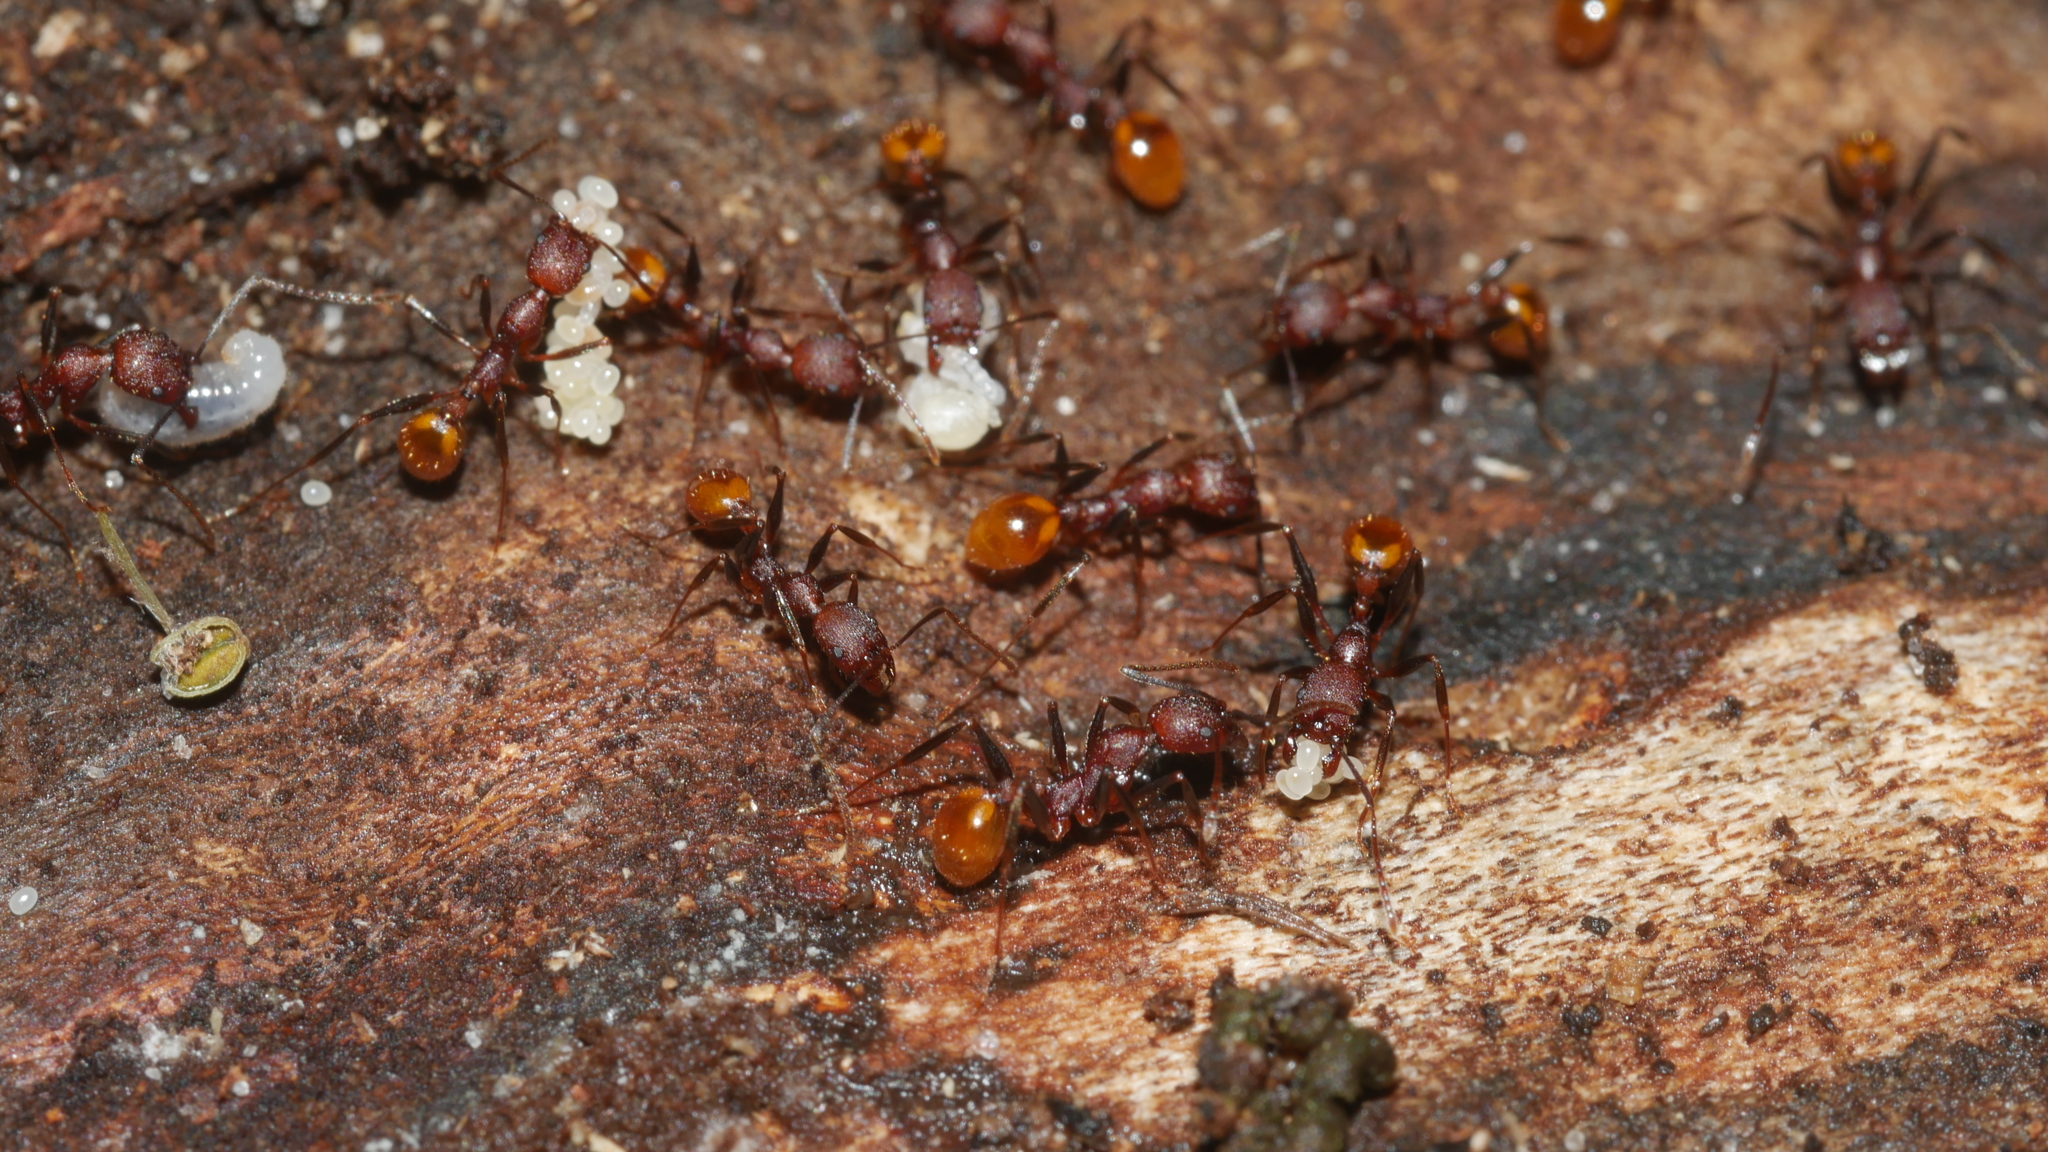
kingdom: Animalia
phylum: Arthropoda
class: Insecta
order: Hymenoptera
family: Formicidae
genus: Aphaenogaster
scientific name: Aphaenogaster lamellidens
